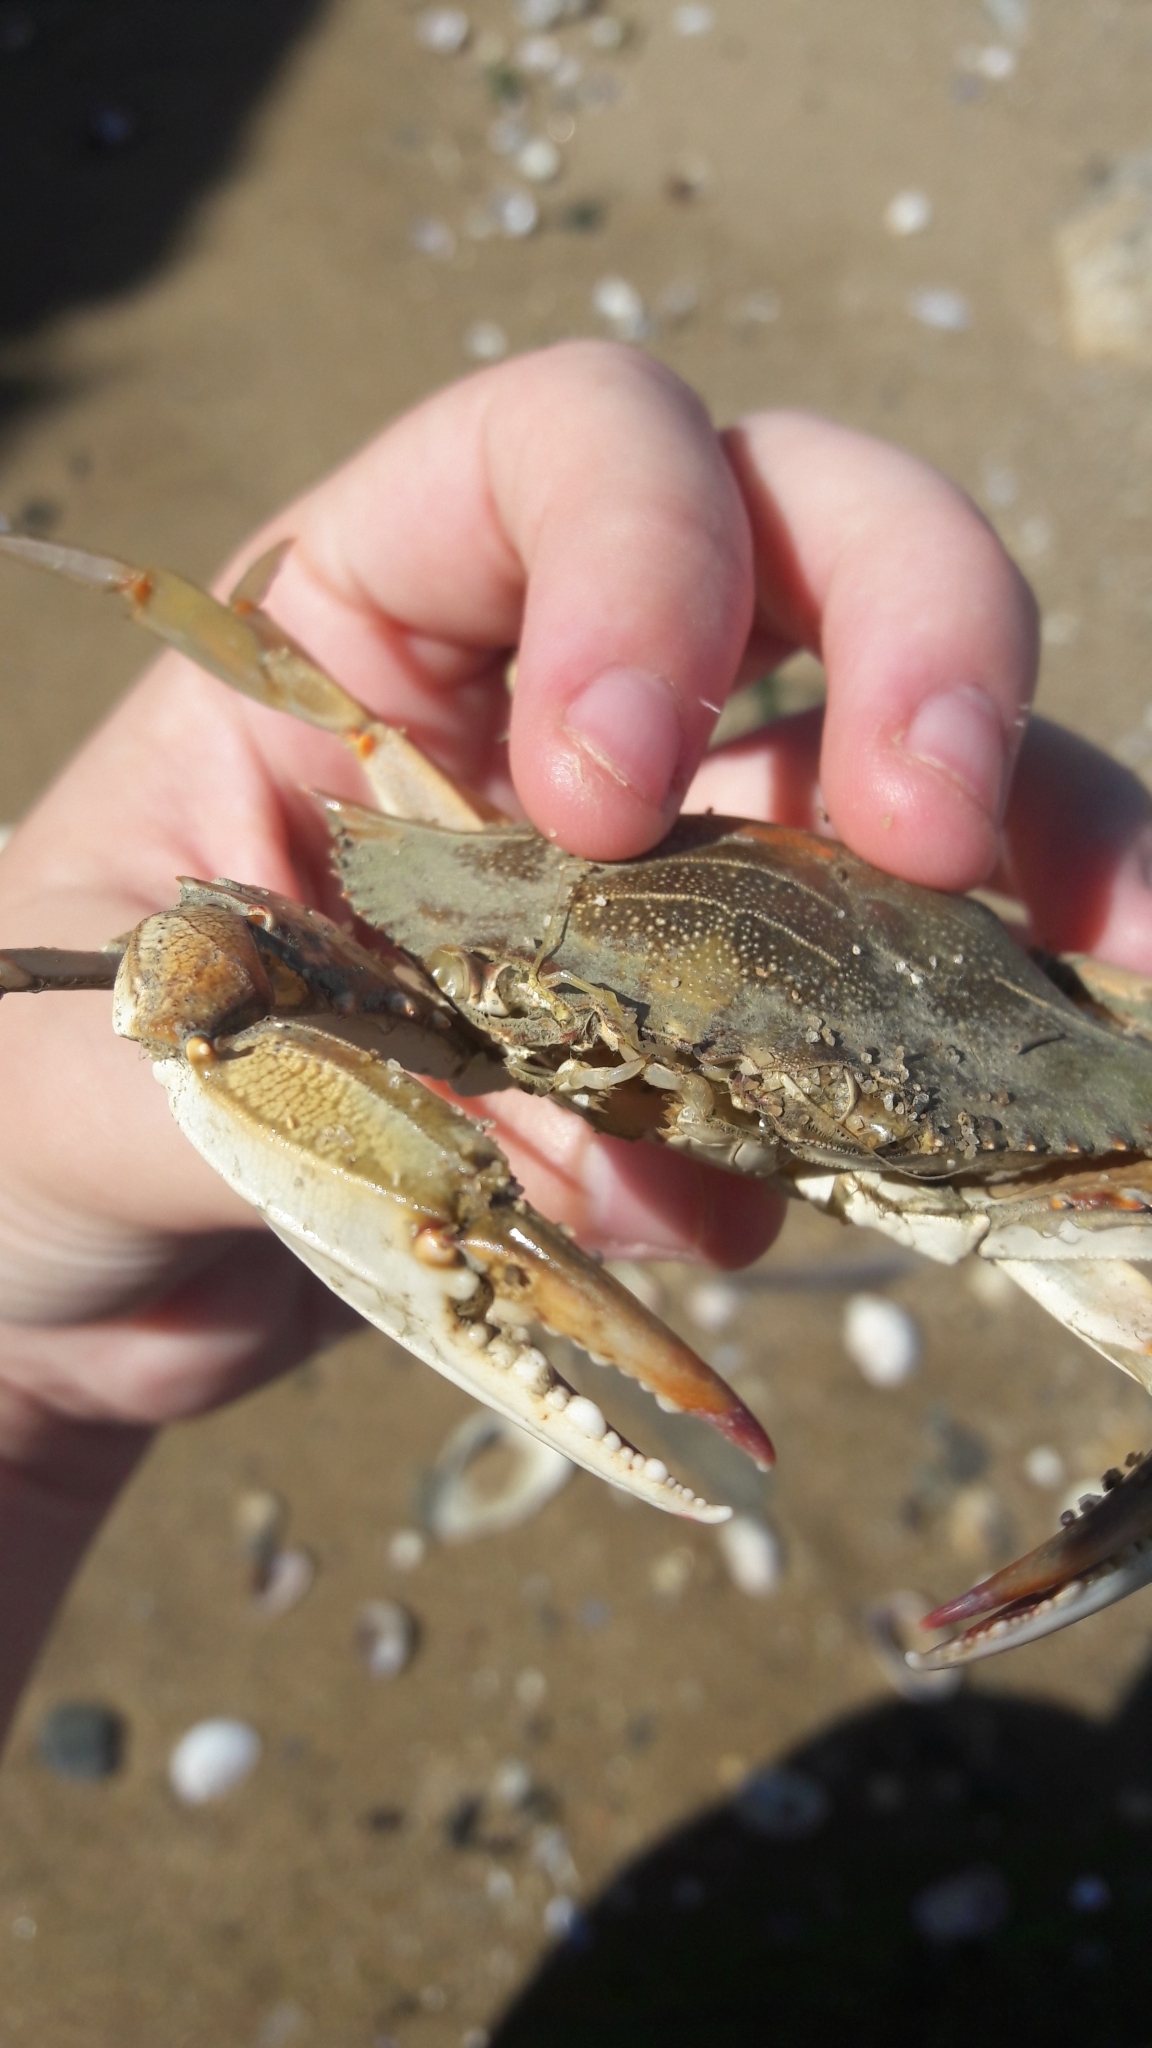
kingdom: Animalia
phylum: Arthropoda
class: Malacostraca
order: Decapoda
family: Portunidae
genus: Callinectes
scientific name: Callinectes sapidus
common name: Blue crab
